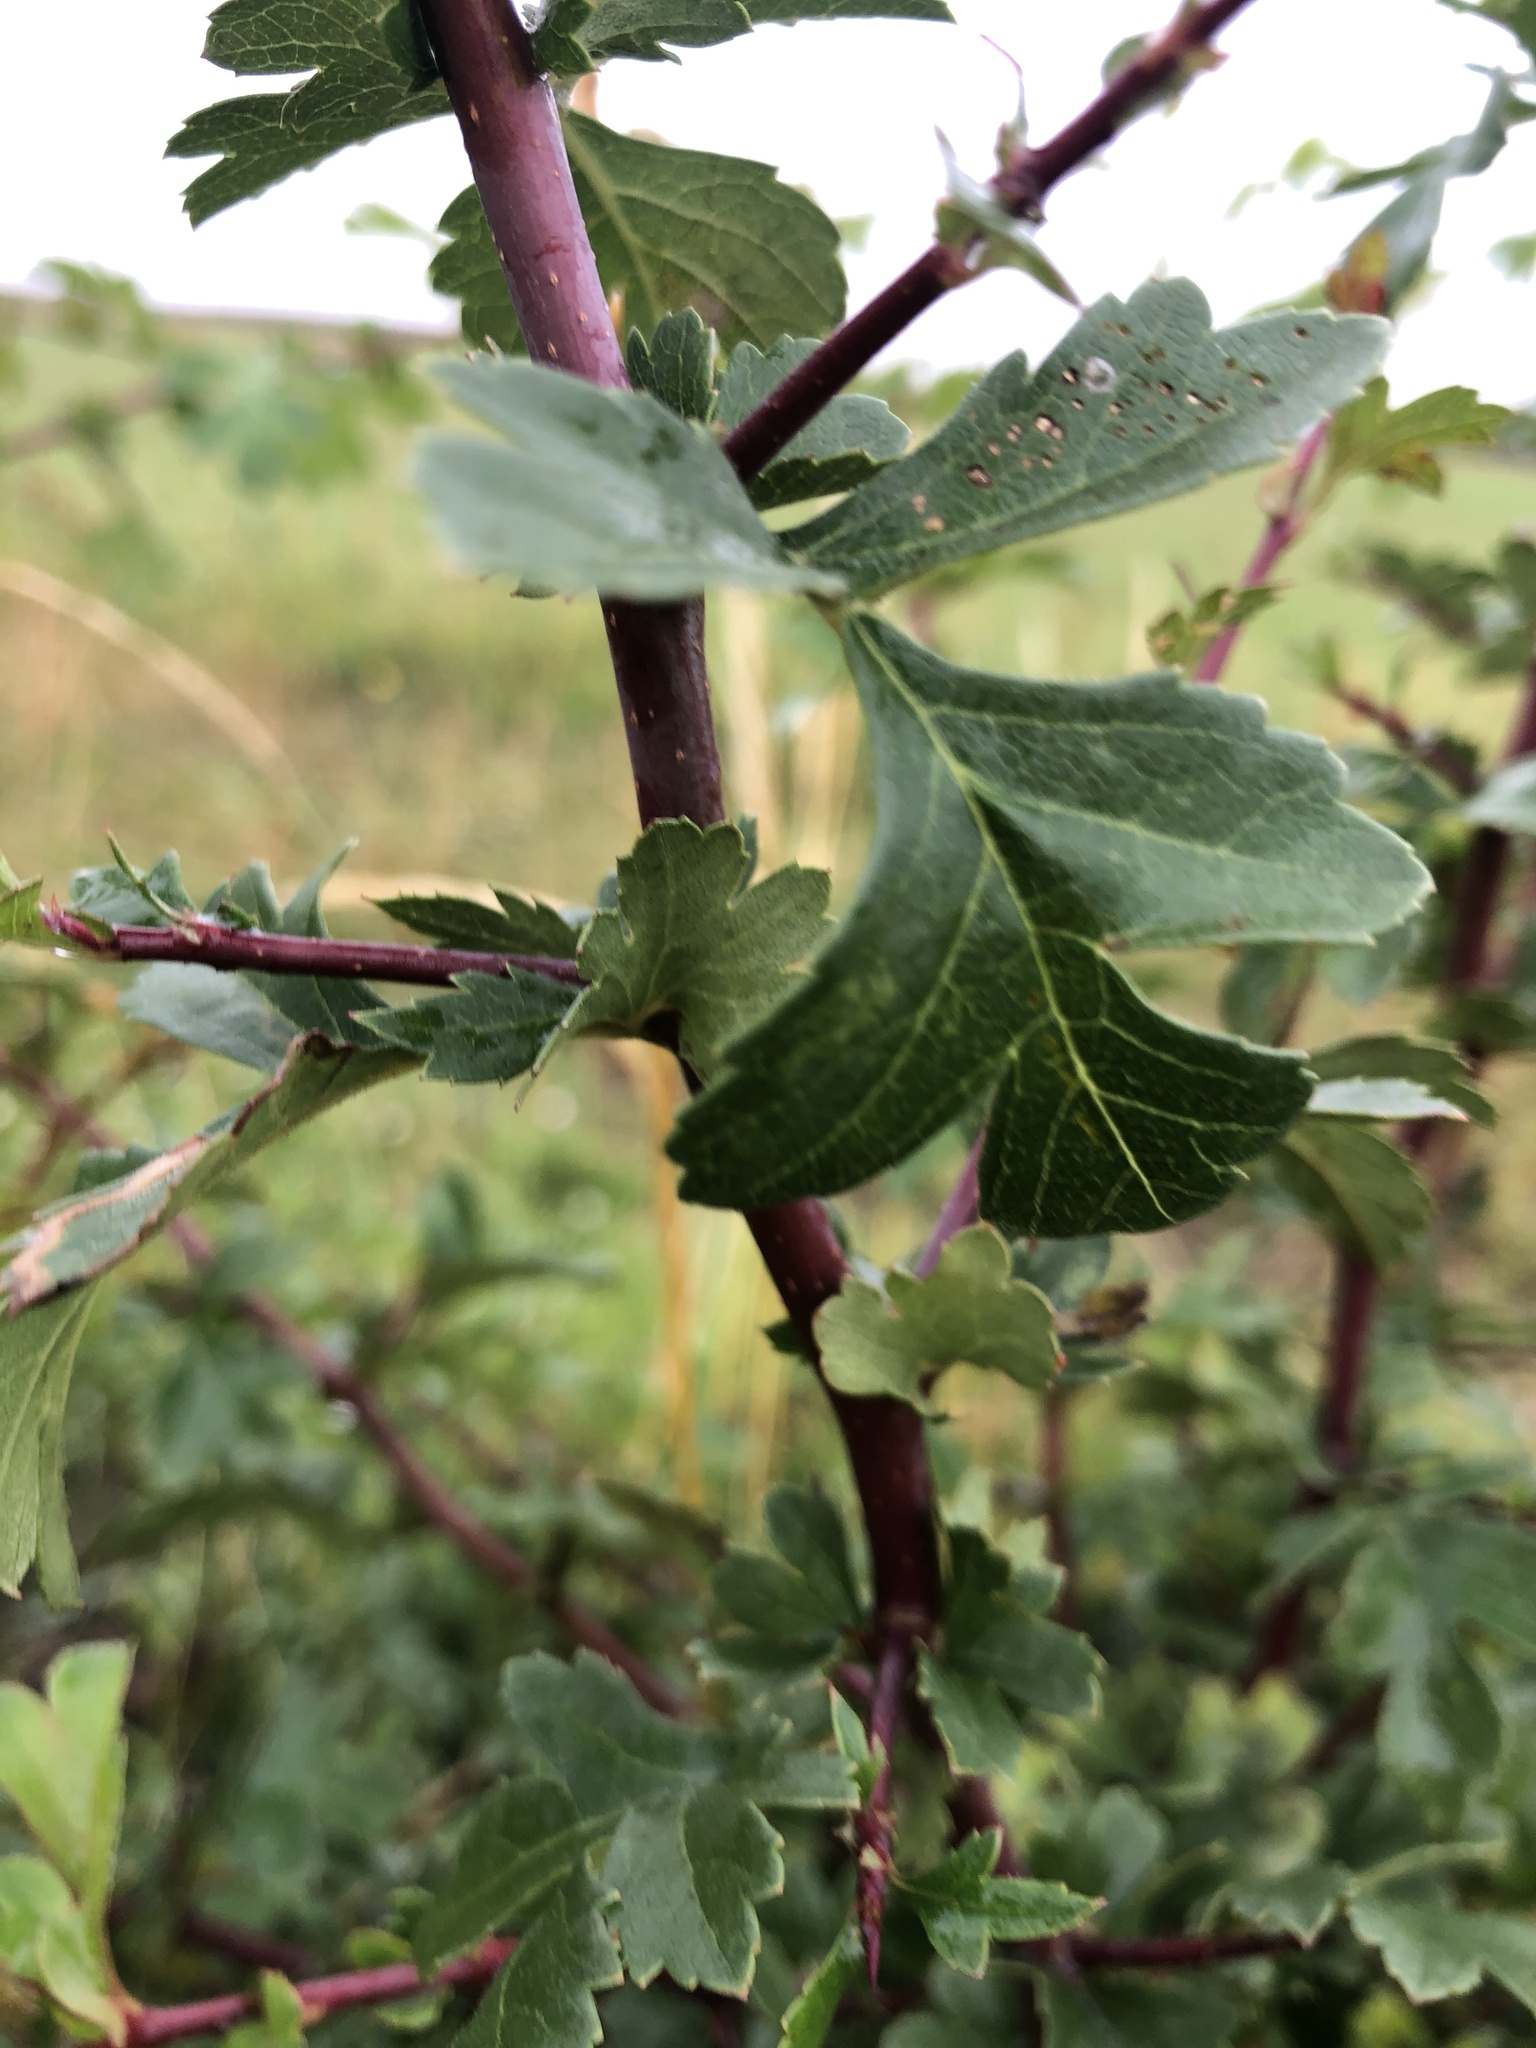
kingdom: Plantae
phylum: Tracheophyta
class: Magnoliopsida
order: Rosales
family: Rosaceae
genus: Crataegus
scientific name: Crataegus monogyna
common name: Hawthorn
